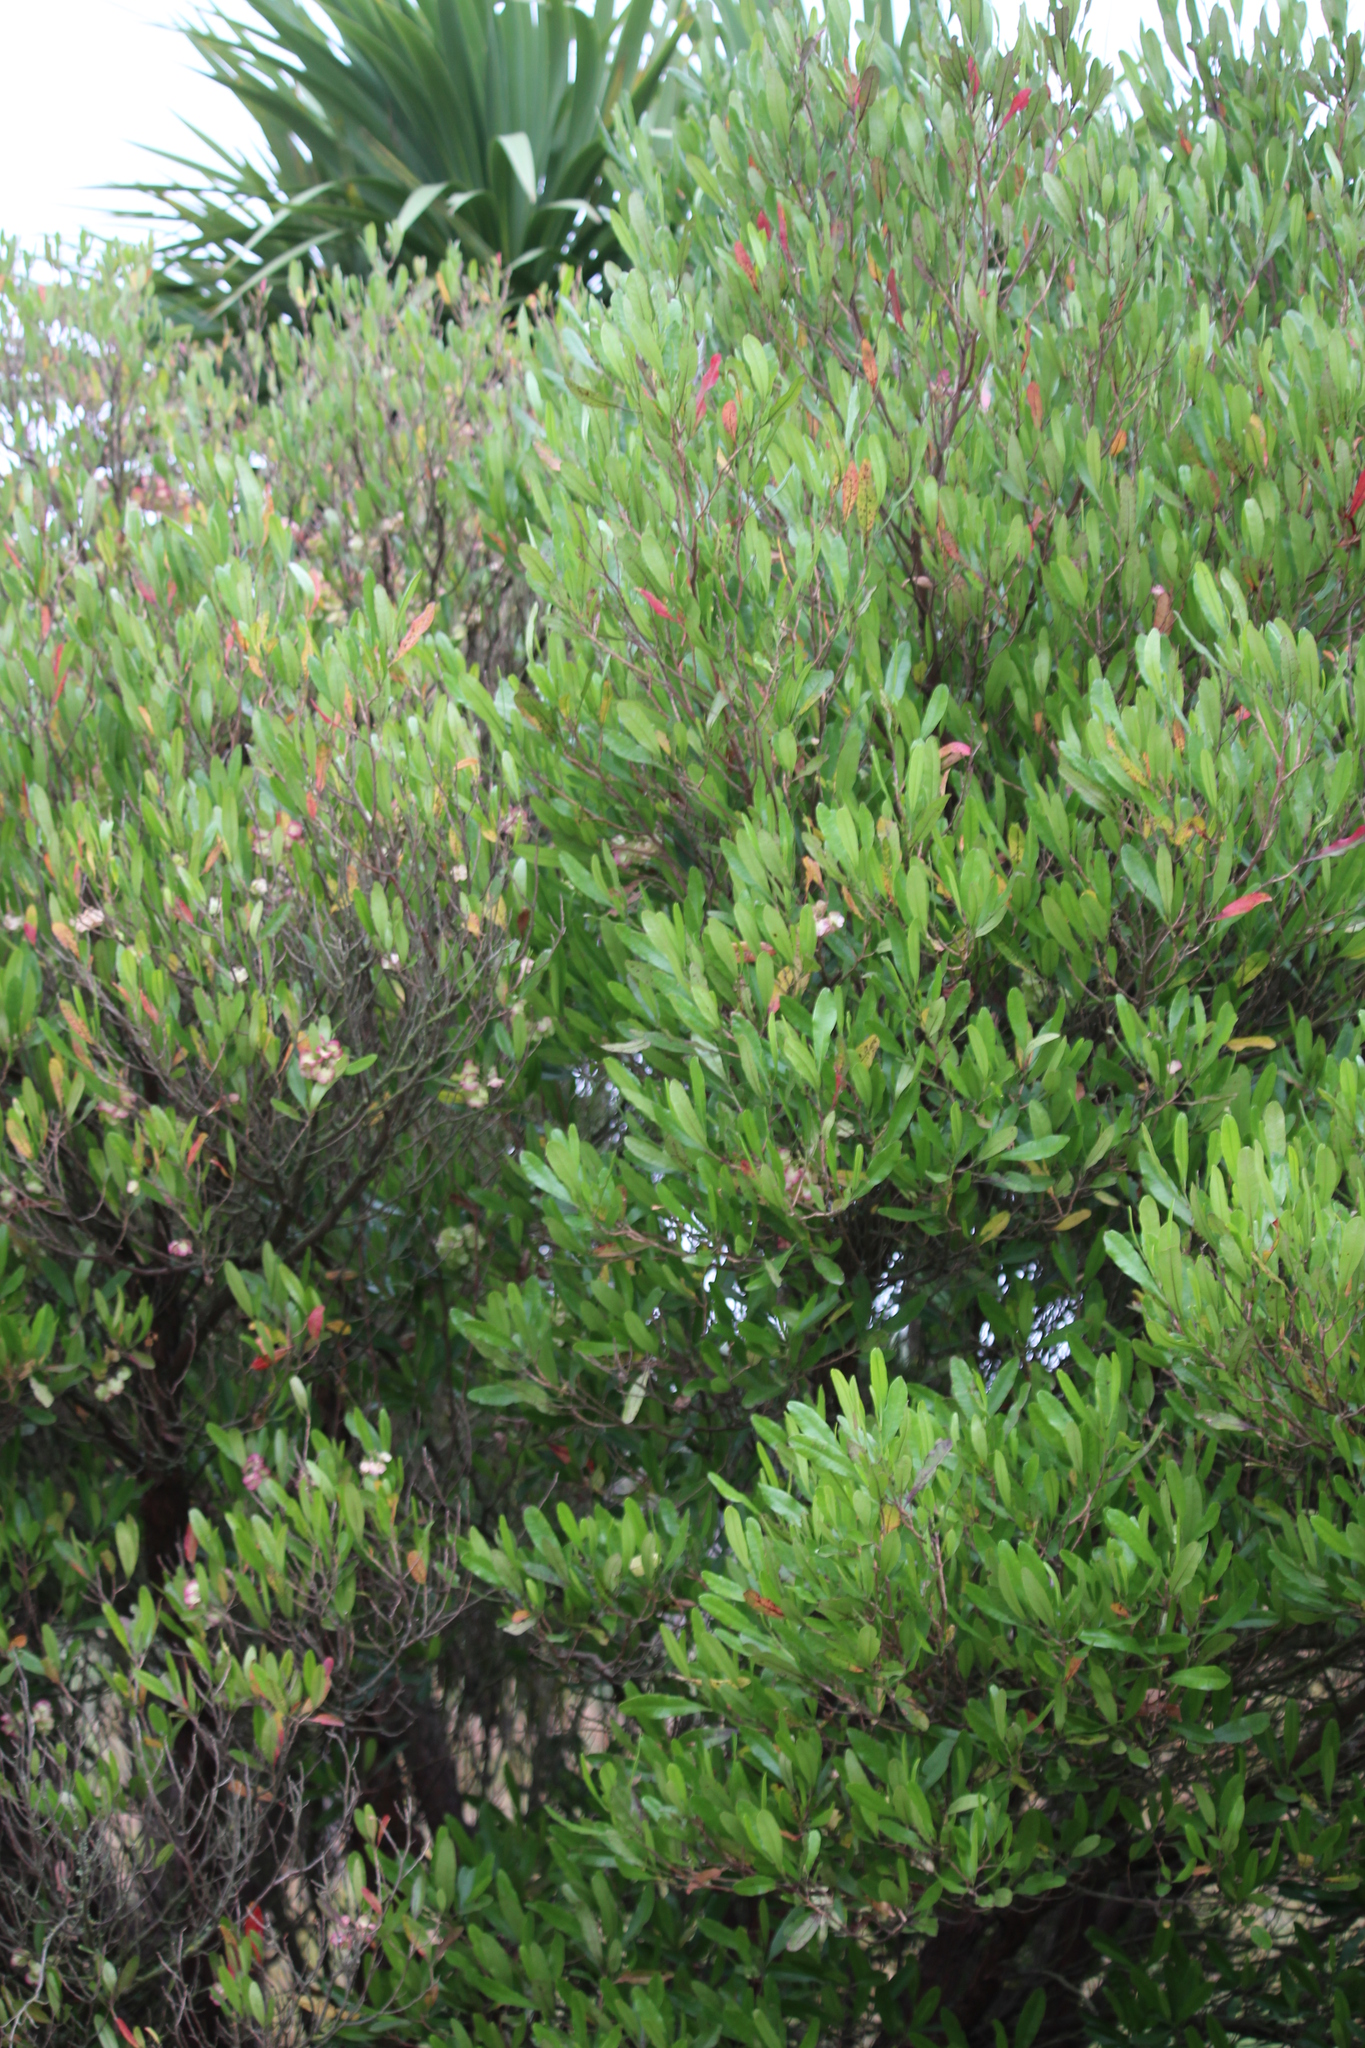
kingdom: Plantae
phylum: Tracheophyta
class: Magnoliopsida
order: Sapindales
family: Sapindaceae
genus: Dodonaea
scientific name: Dodonaea viscosa
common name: Hopbush
